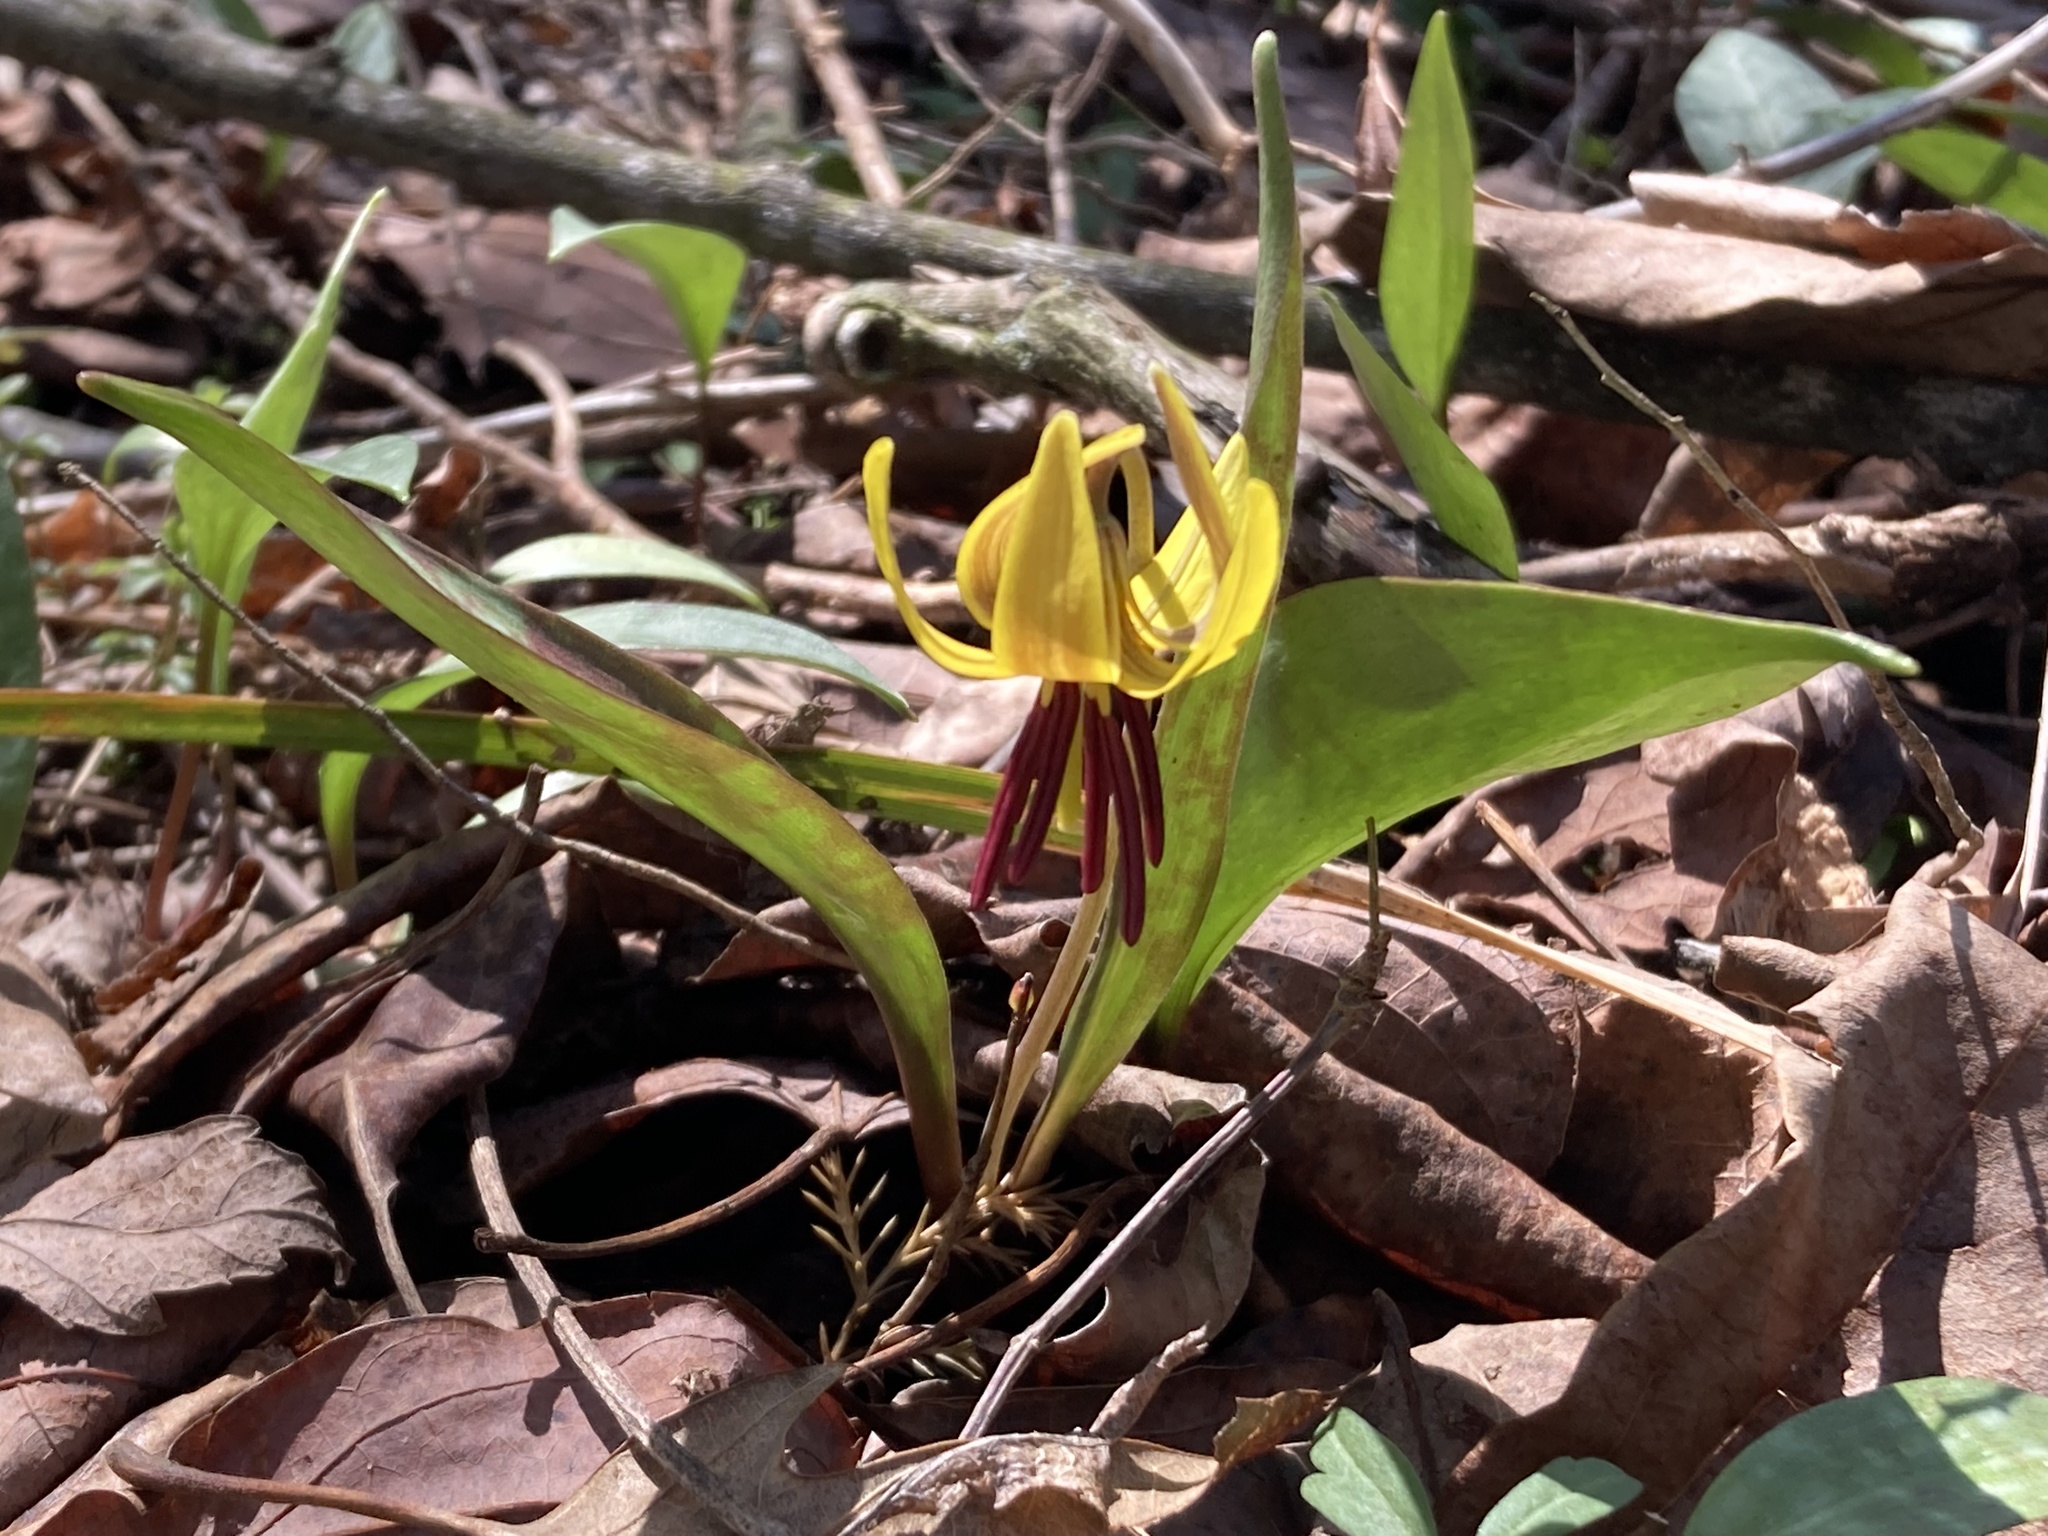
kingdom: Plantae
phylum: Tracheophyta
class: Liliopsida
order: Liliales
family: Liliaceae
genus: Erythronium
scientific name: Erythronium americanum
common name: Yellow adder's-tongue
